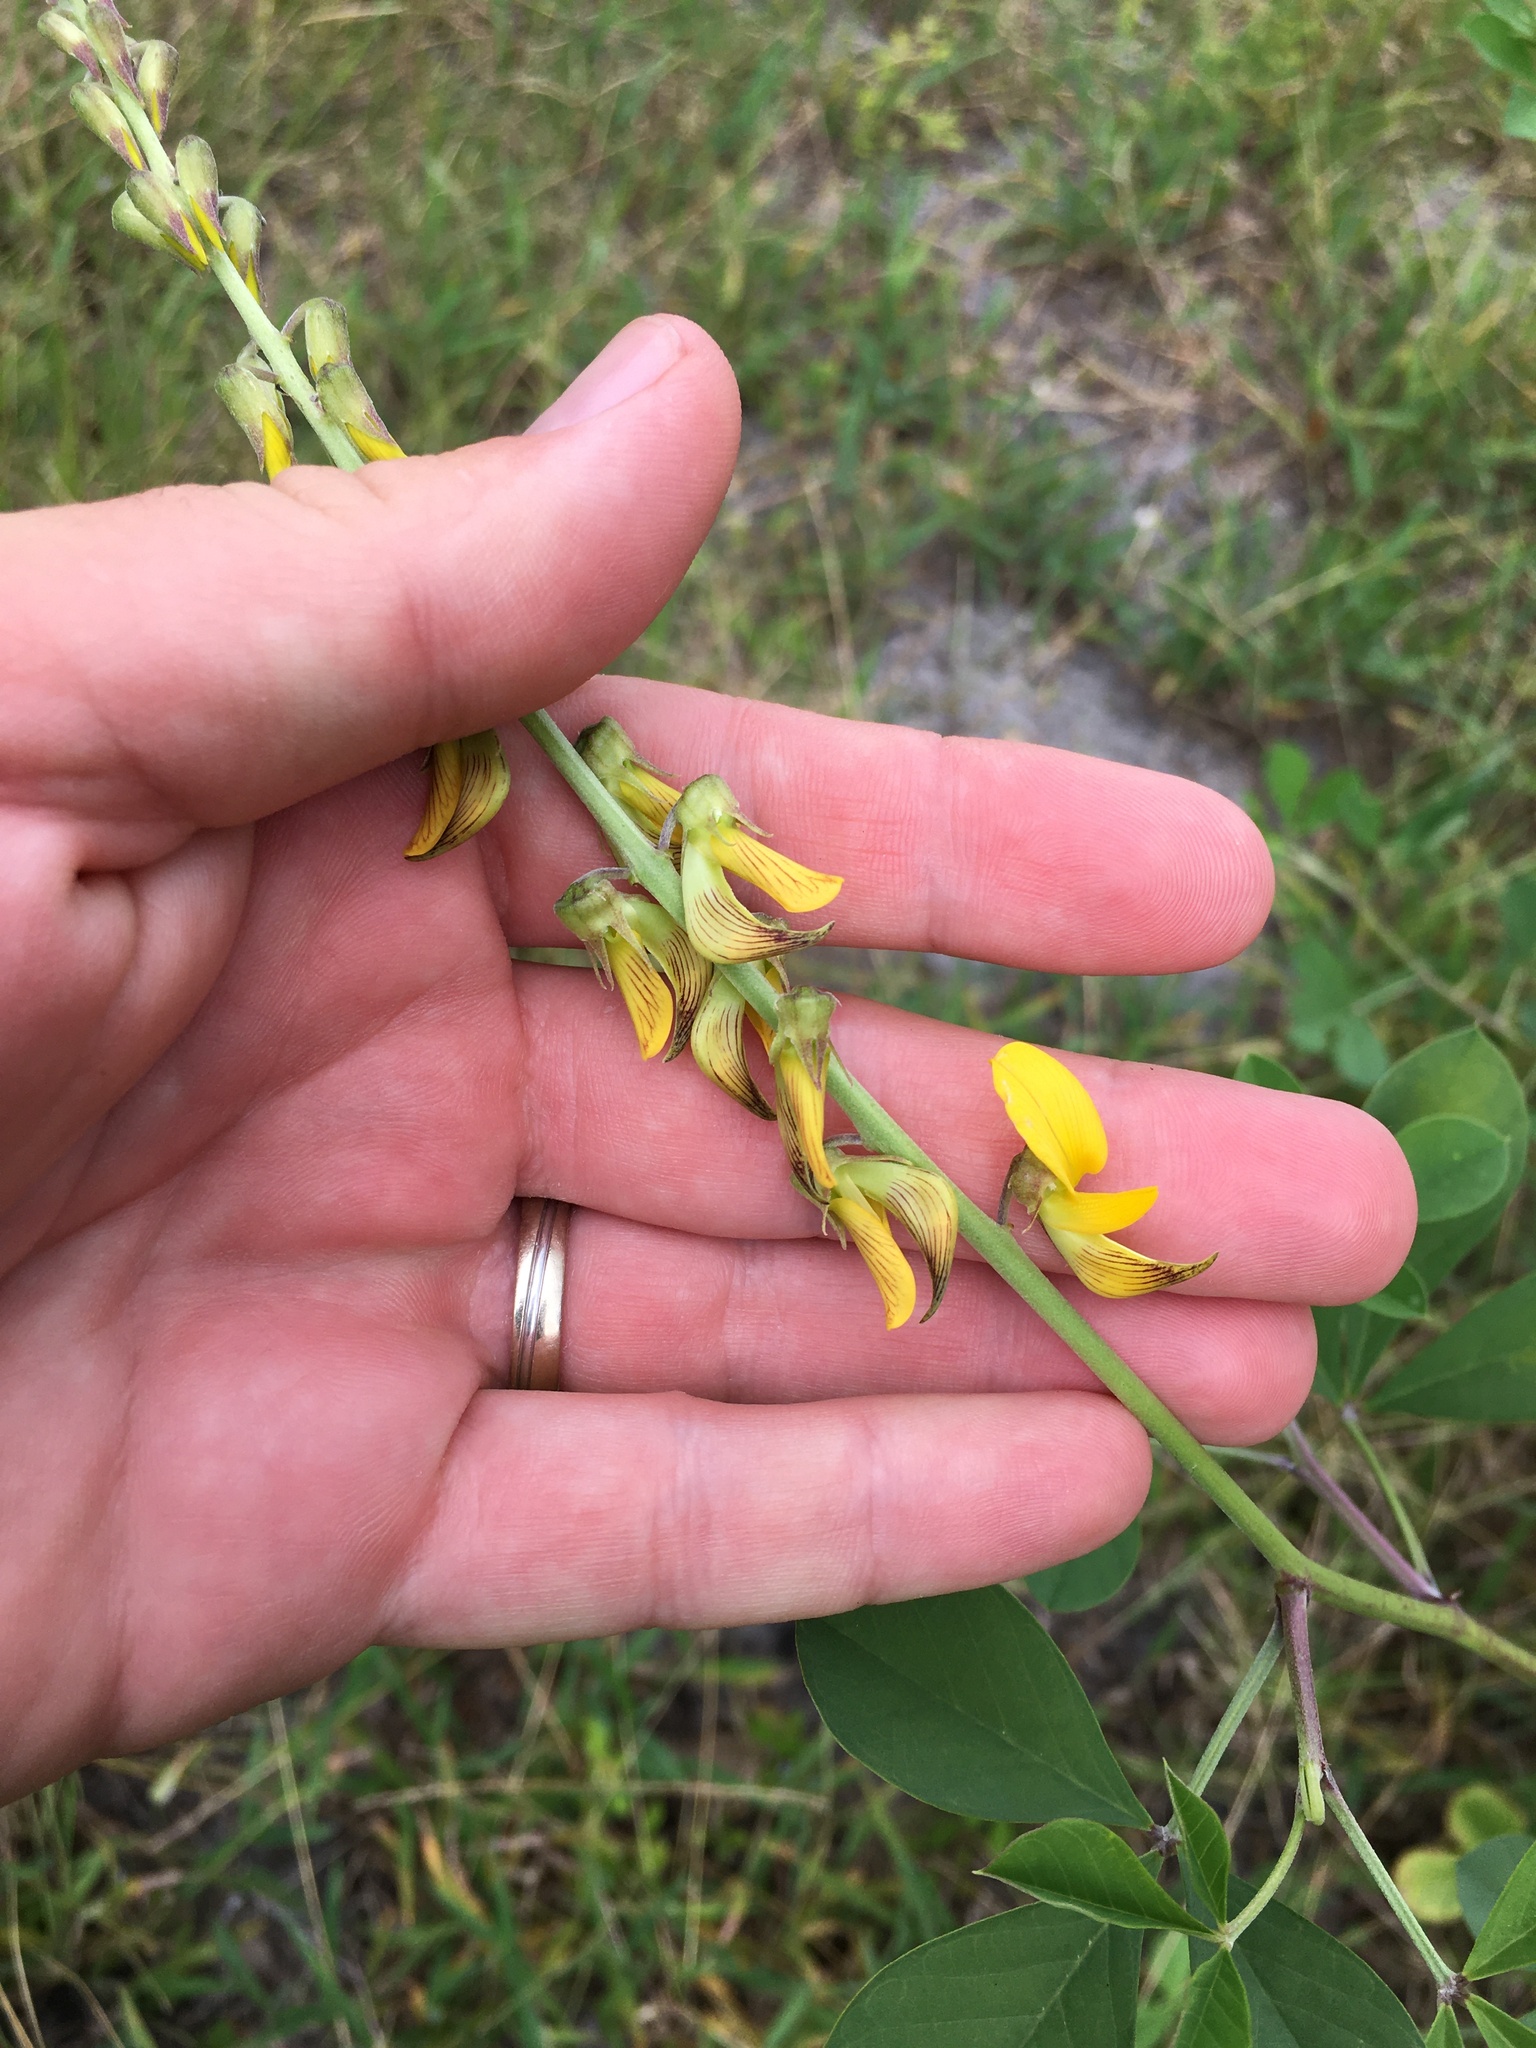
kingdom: Plantae
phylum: Tracheophyta
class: Magnoliopsida
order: Fabales
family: Fabaceae
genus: Crotalaria
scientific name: Crotalaria pallida
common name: Smooth rattlebox
